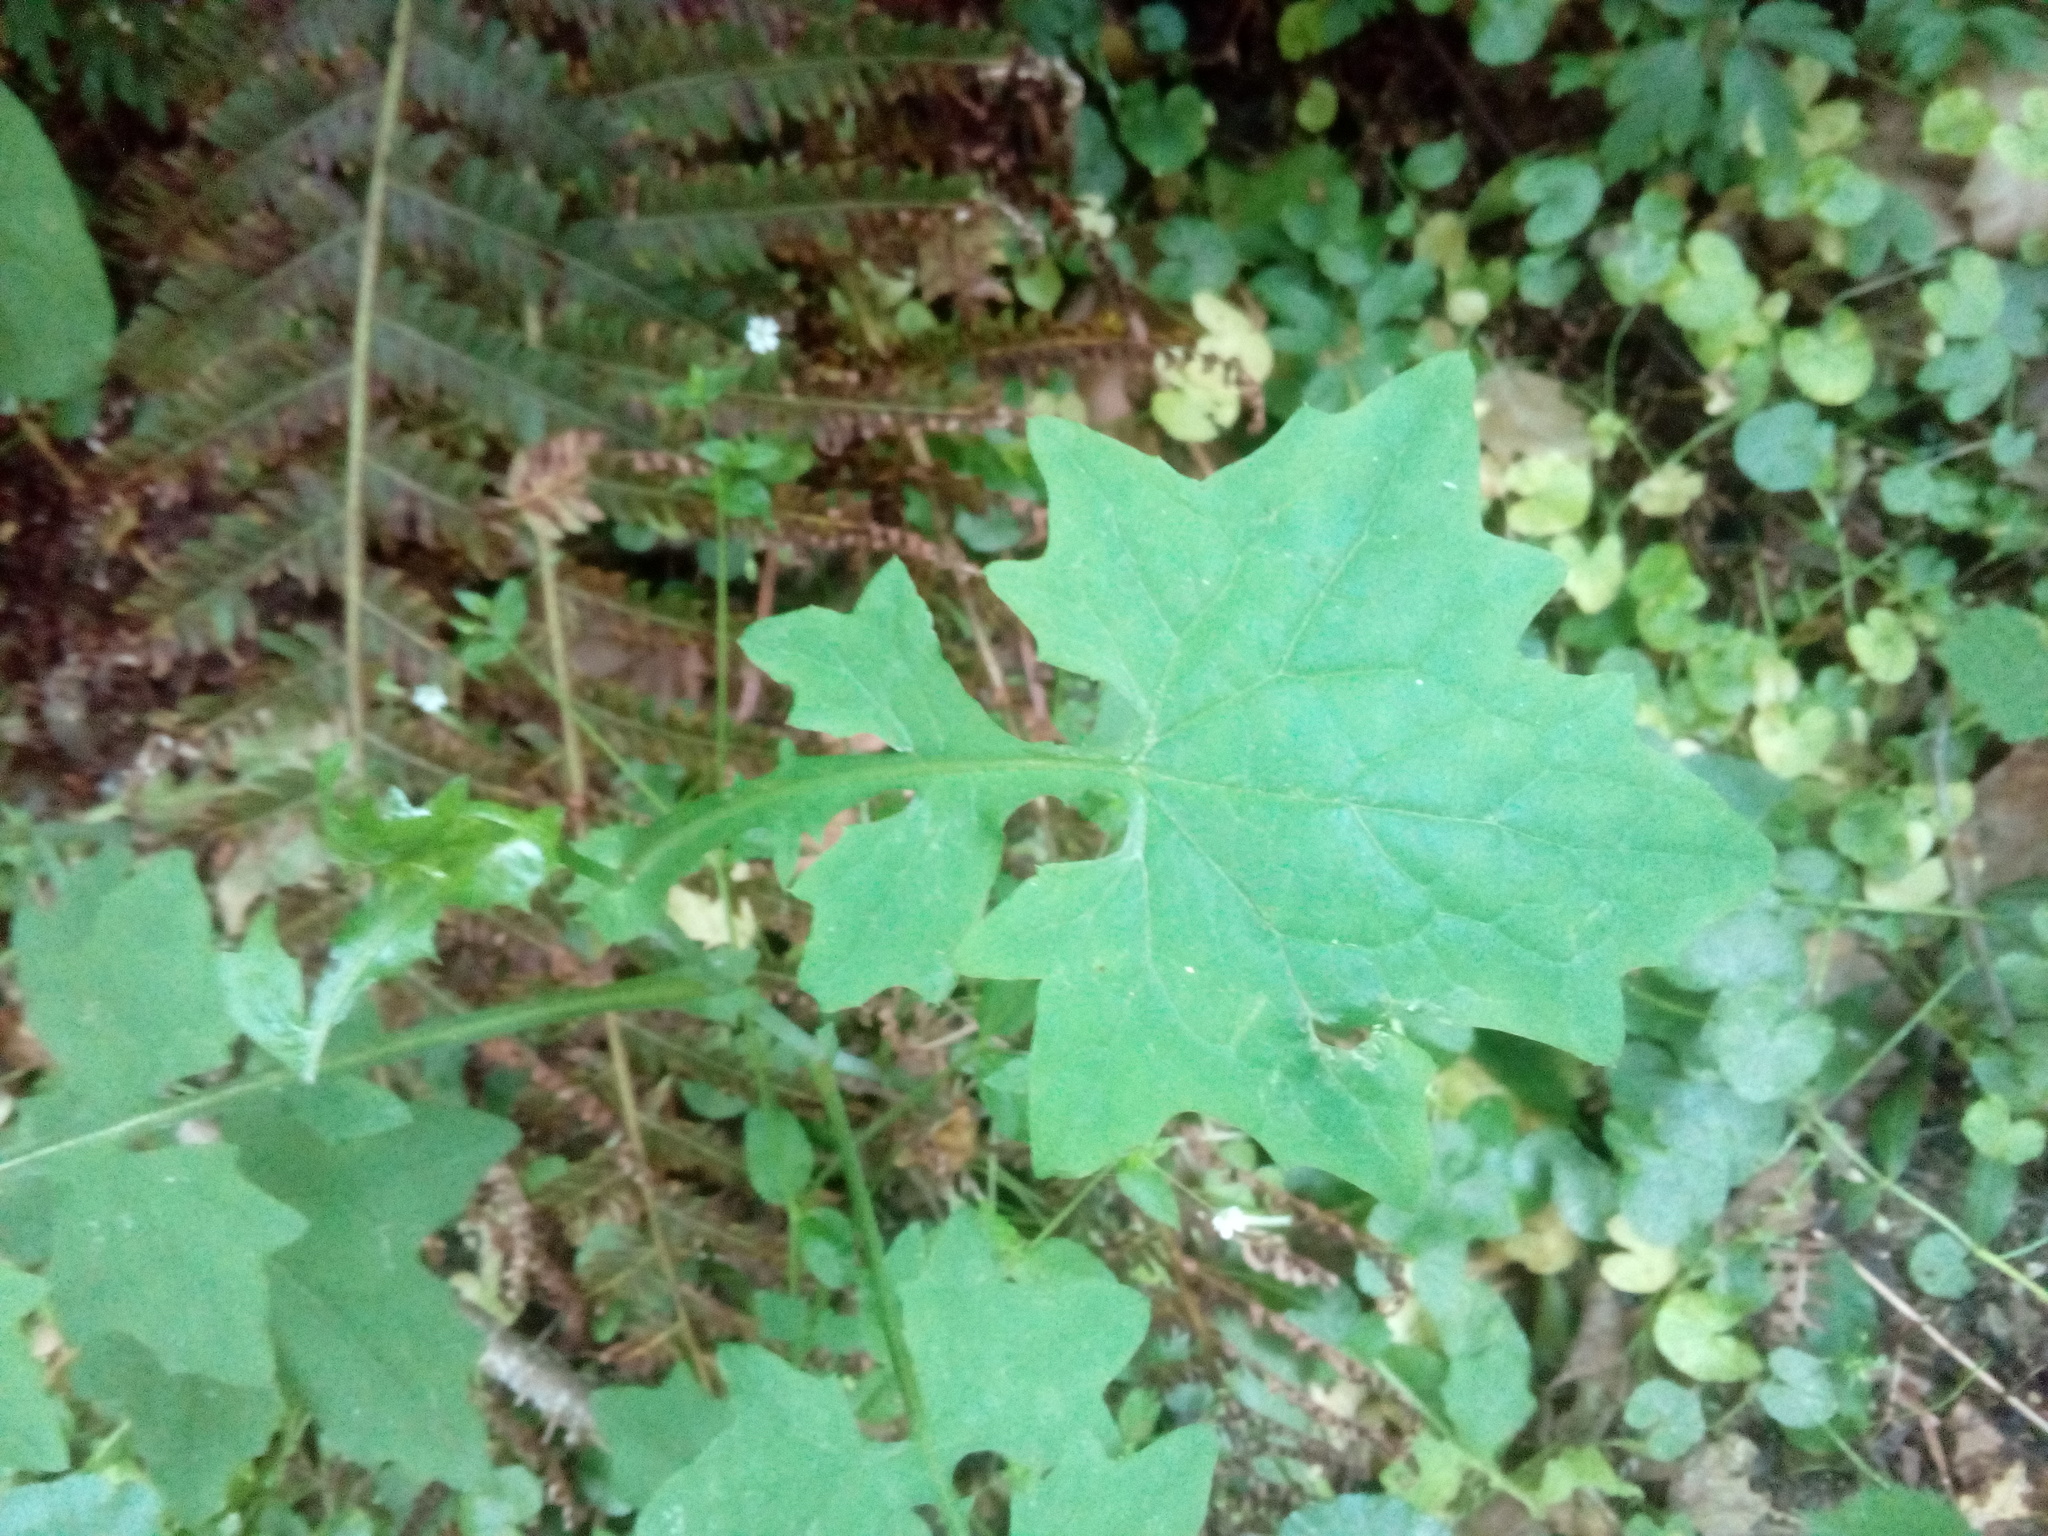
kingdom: Plantae
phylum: Tracheophyta
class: Magnoliopsida
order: Asterales
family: Asteraceae
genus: Mycelis
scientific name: Mycelis muralis
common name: Wall lettuce
